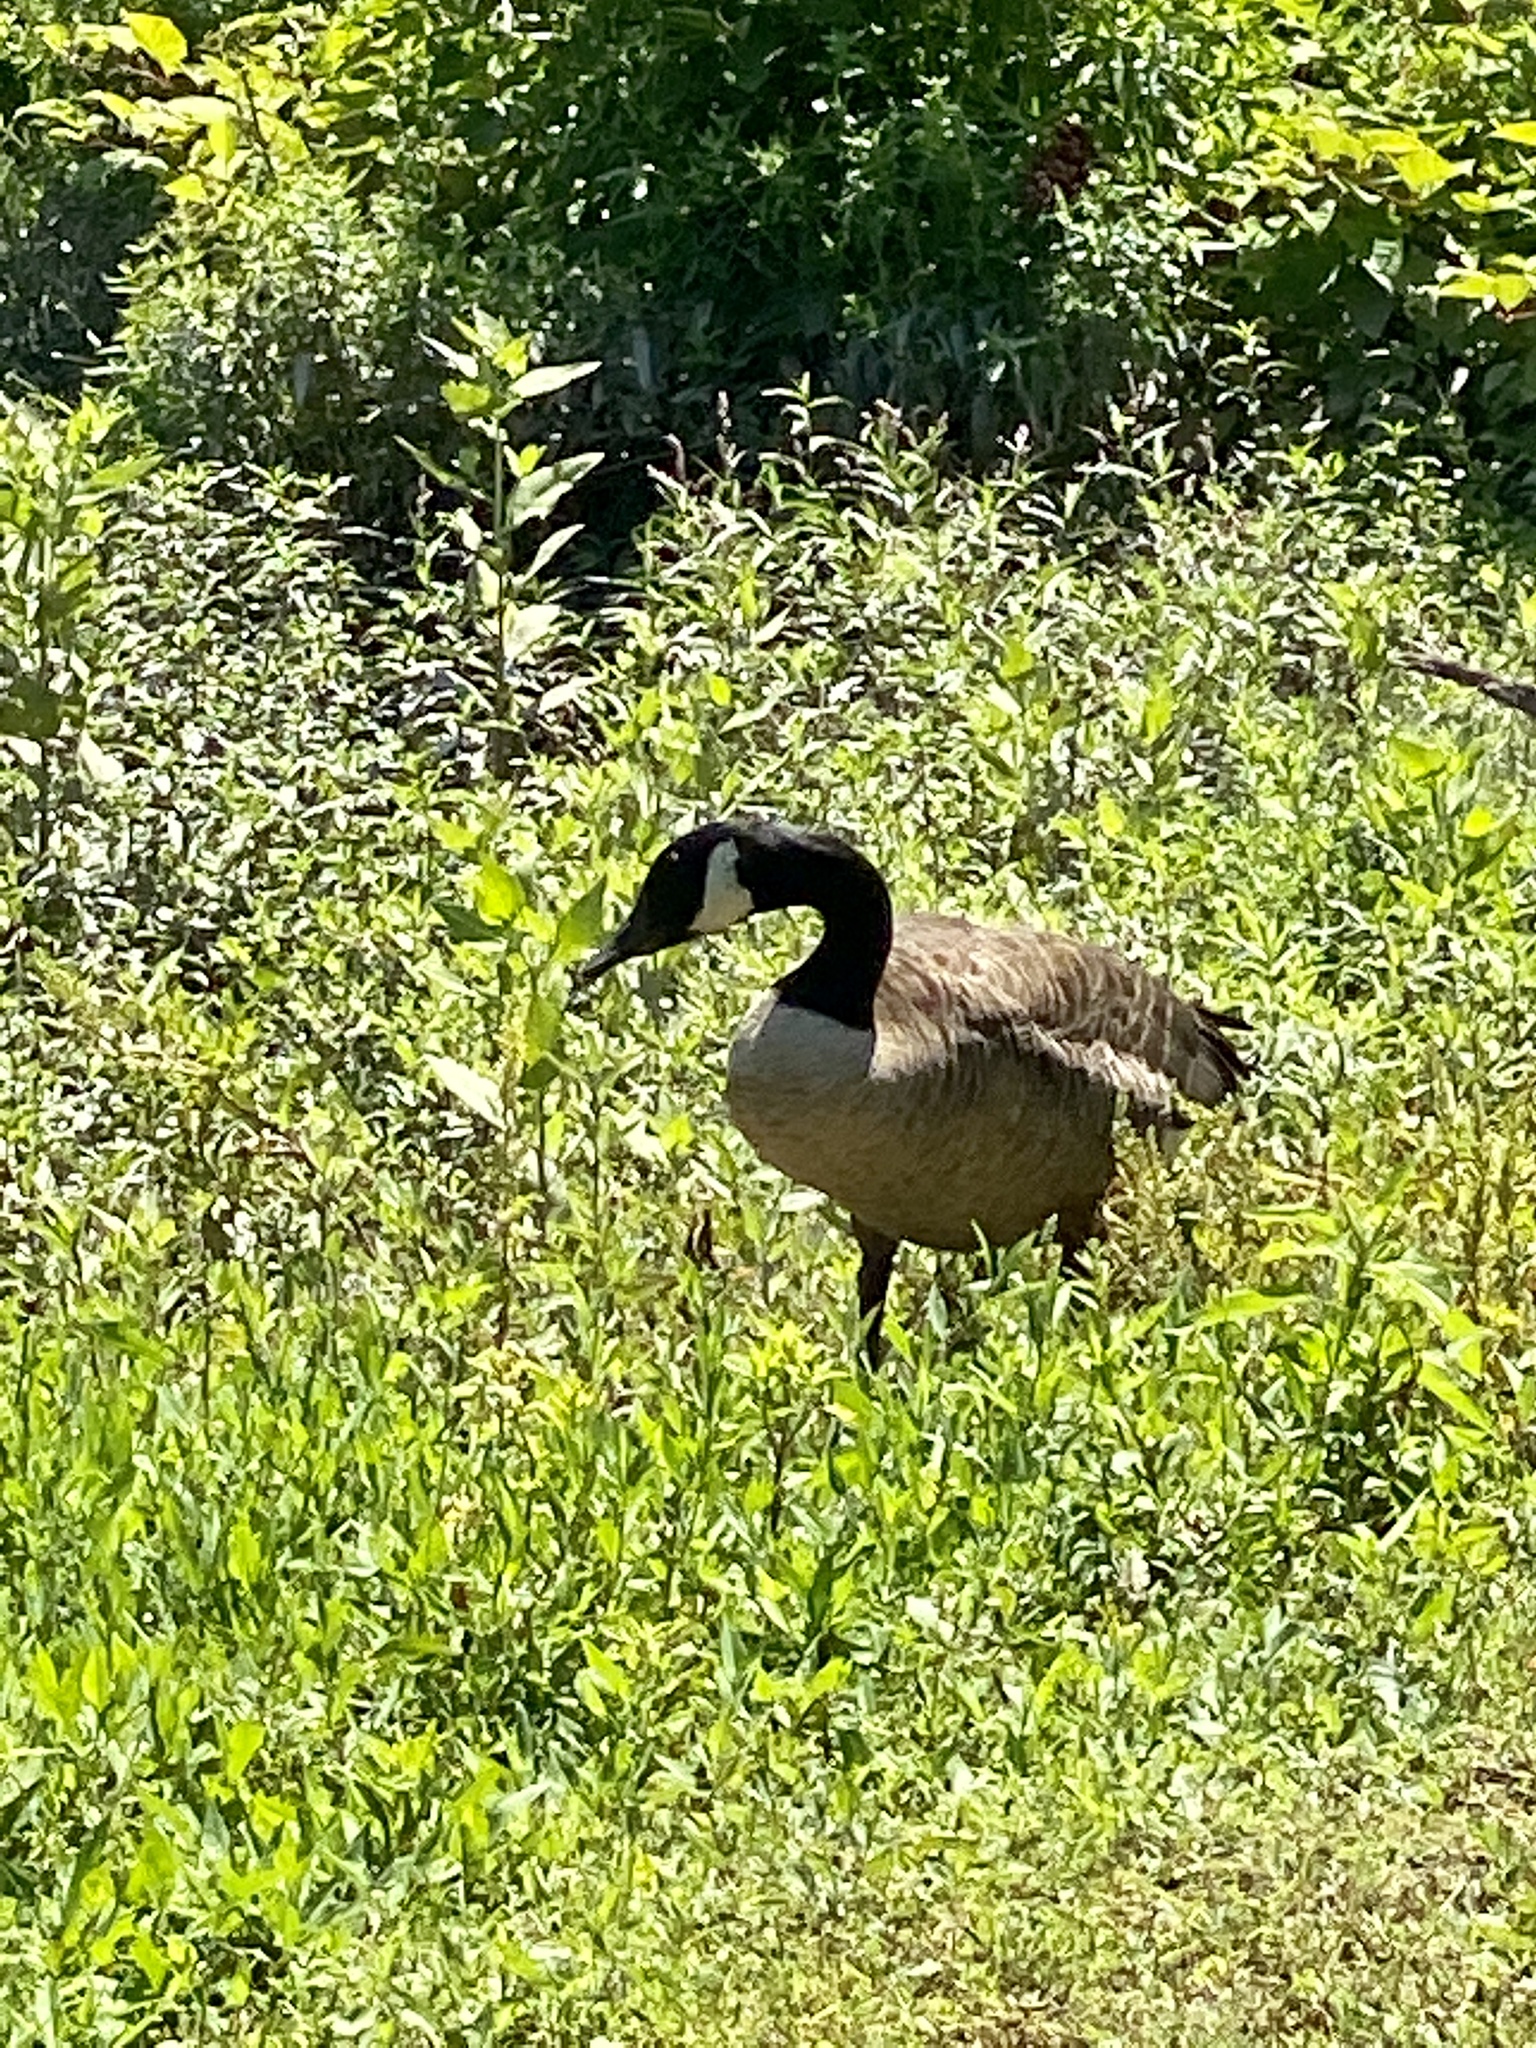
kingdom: Animalia
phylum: Chordata
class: Aves
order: Anseriformes
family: Anatidae
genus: Branta
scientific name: Branta canadensis
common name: Canada goose
